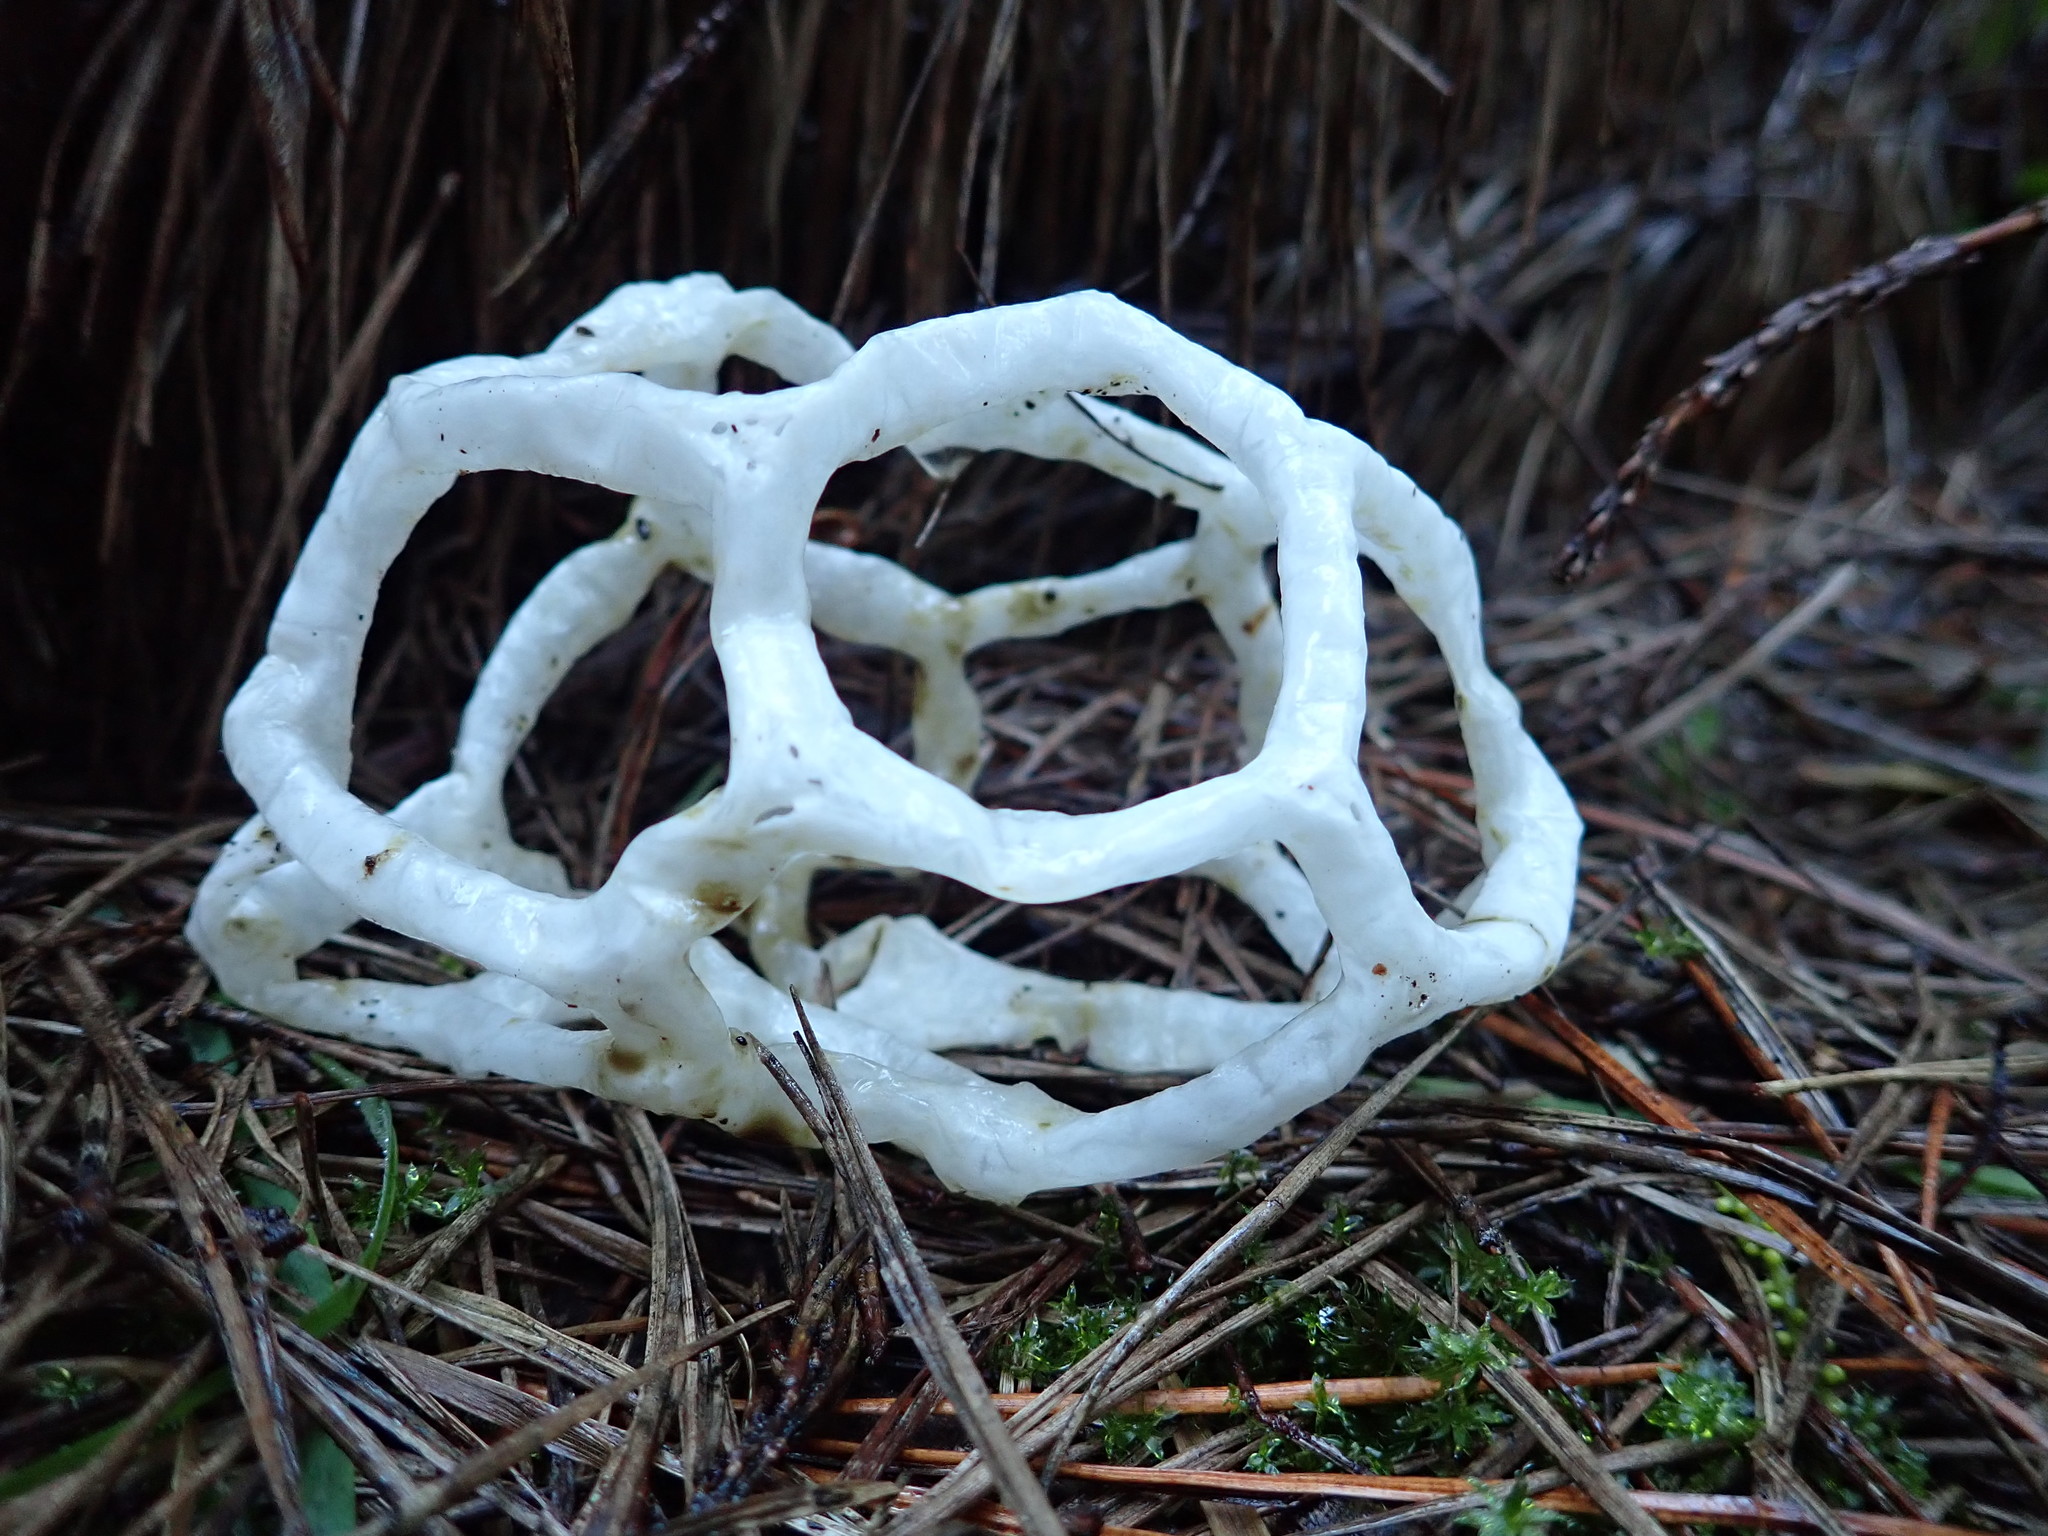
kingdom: Fungi
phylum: Basidiomycota
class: Agaricomycetes
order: Phallales
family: Phallaceae
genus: Ileodictyon
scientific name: Ileodictyon cibarium
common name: Basket fungus
